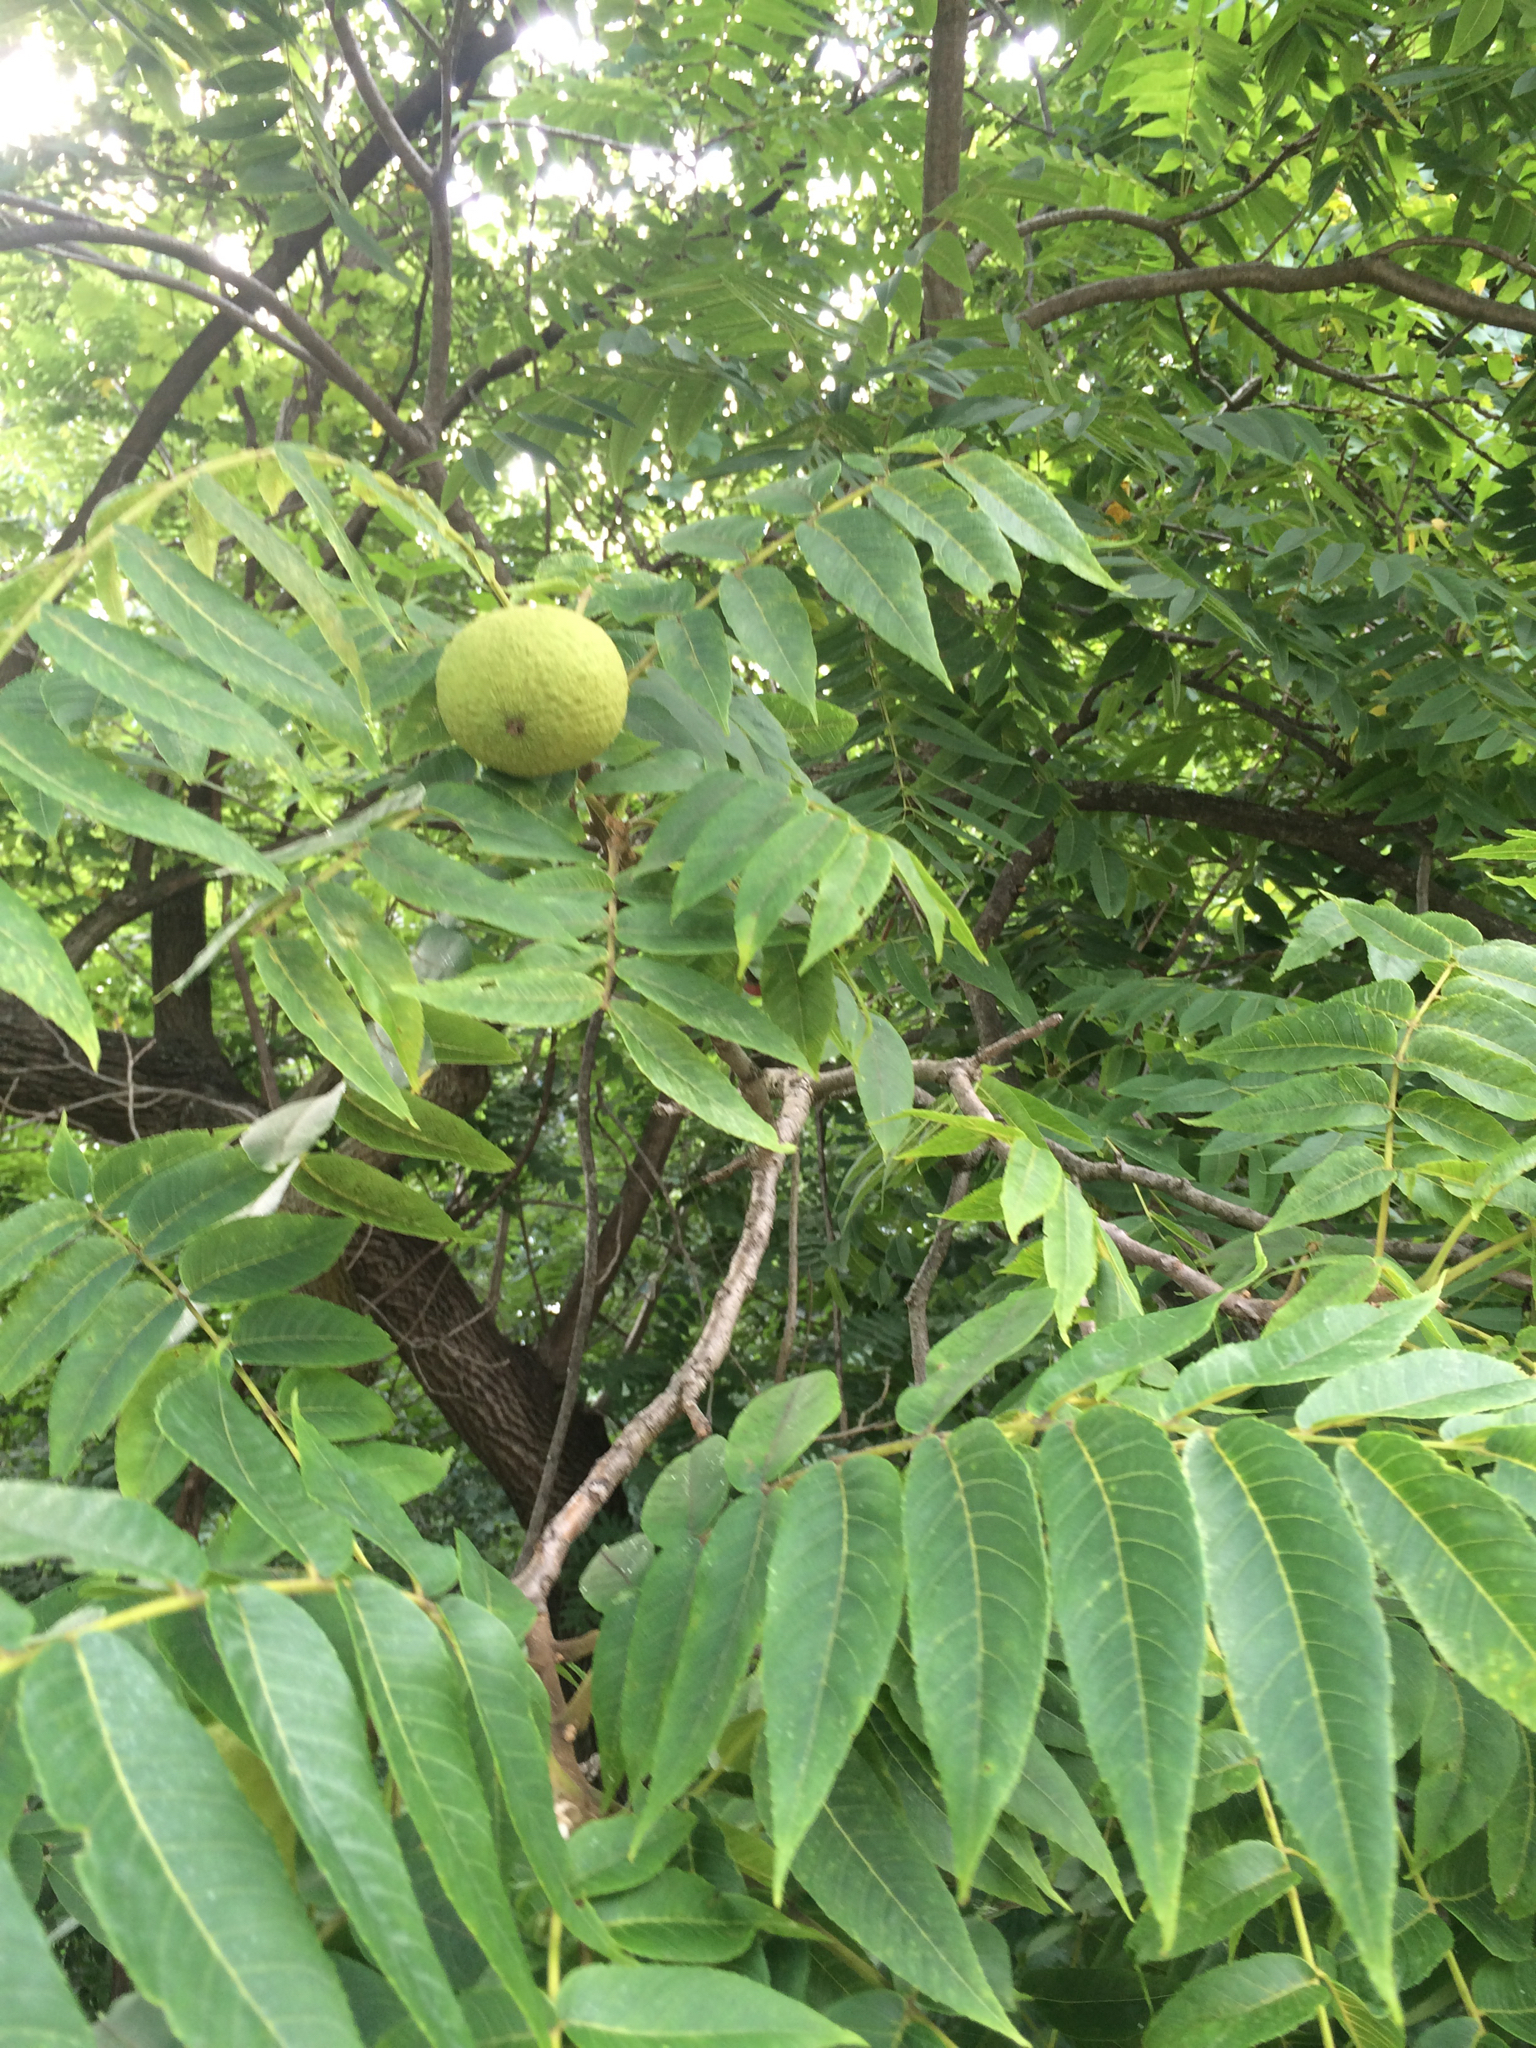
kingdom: Plantae
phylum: Tracheophyta
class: Magnoliopsida
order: Fagales
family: Juglandaceae
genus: Juglans
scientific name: Juglans nigra
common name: Black walnut
